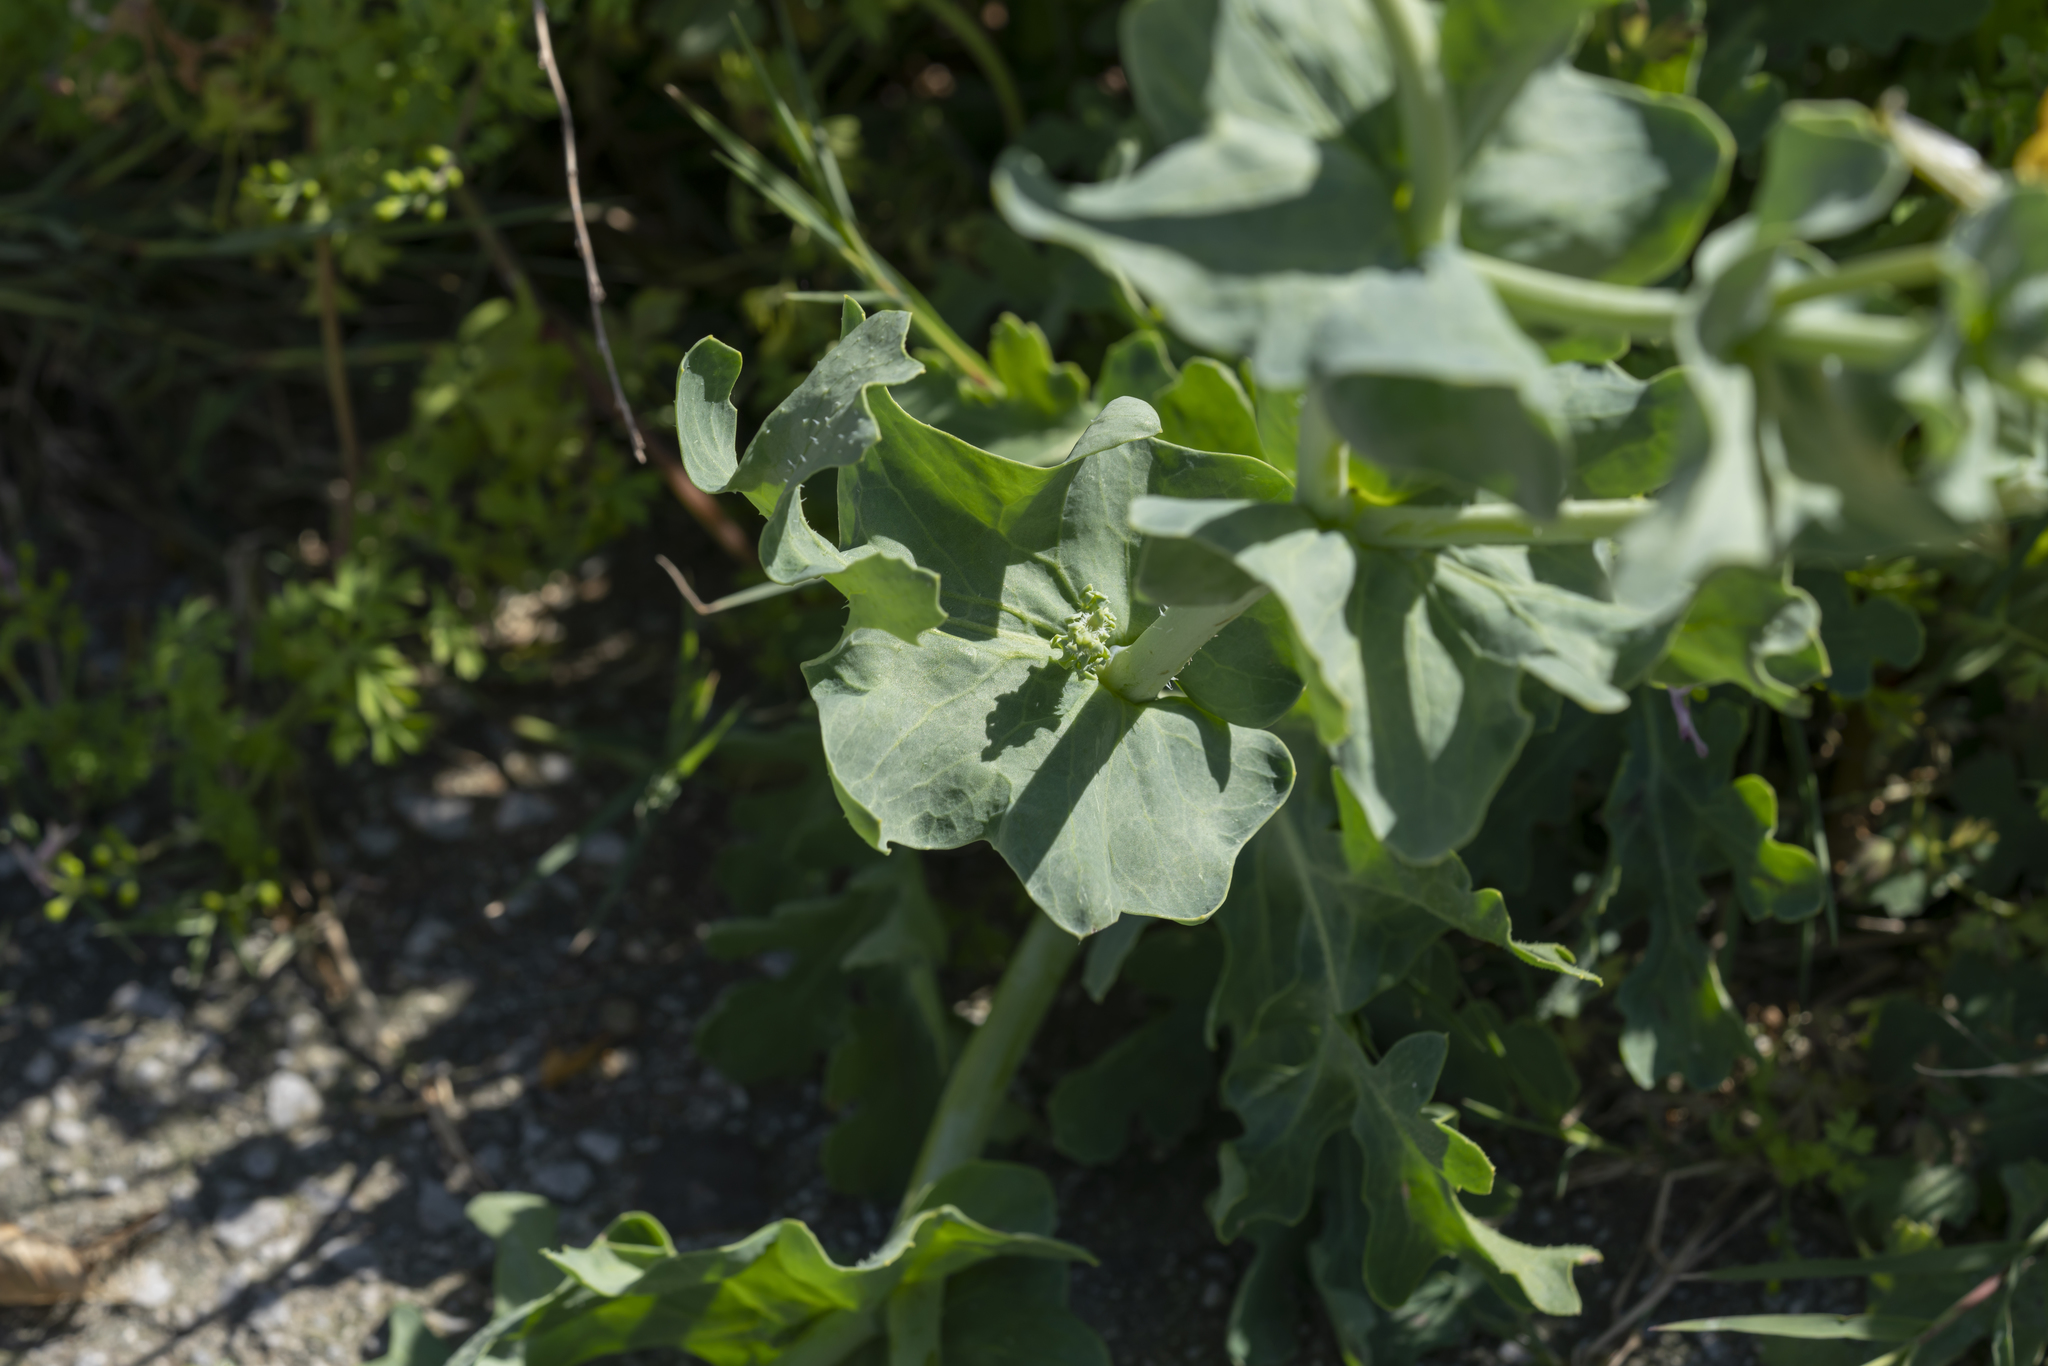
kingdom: Plantae
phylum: Tracheophyta
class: Magnoliopsida
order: Ranunculales
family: Papaveraceae
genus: Glaucium
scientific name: Glaucium flavum
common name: Yellow horned-poppy
